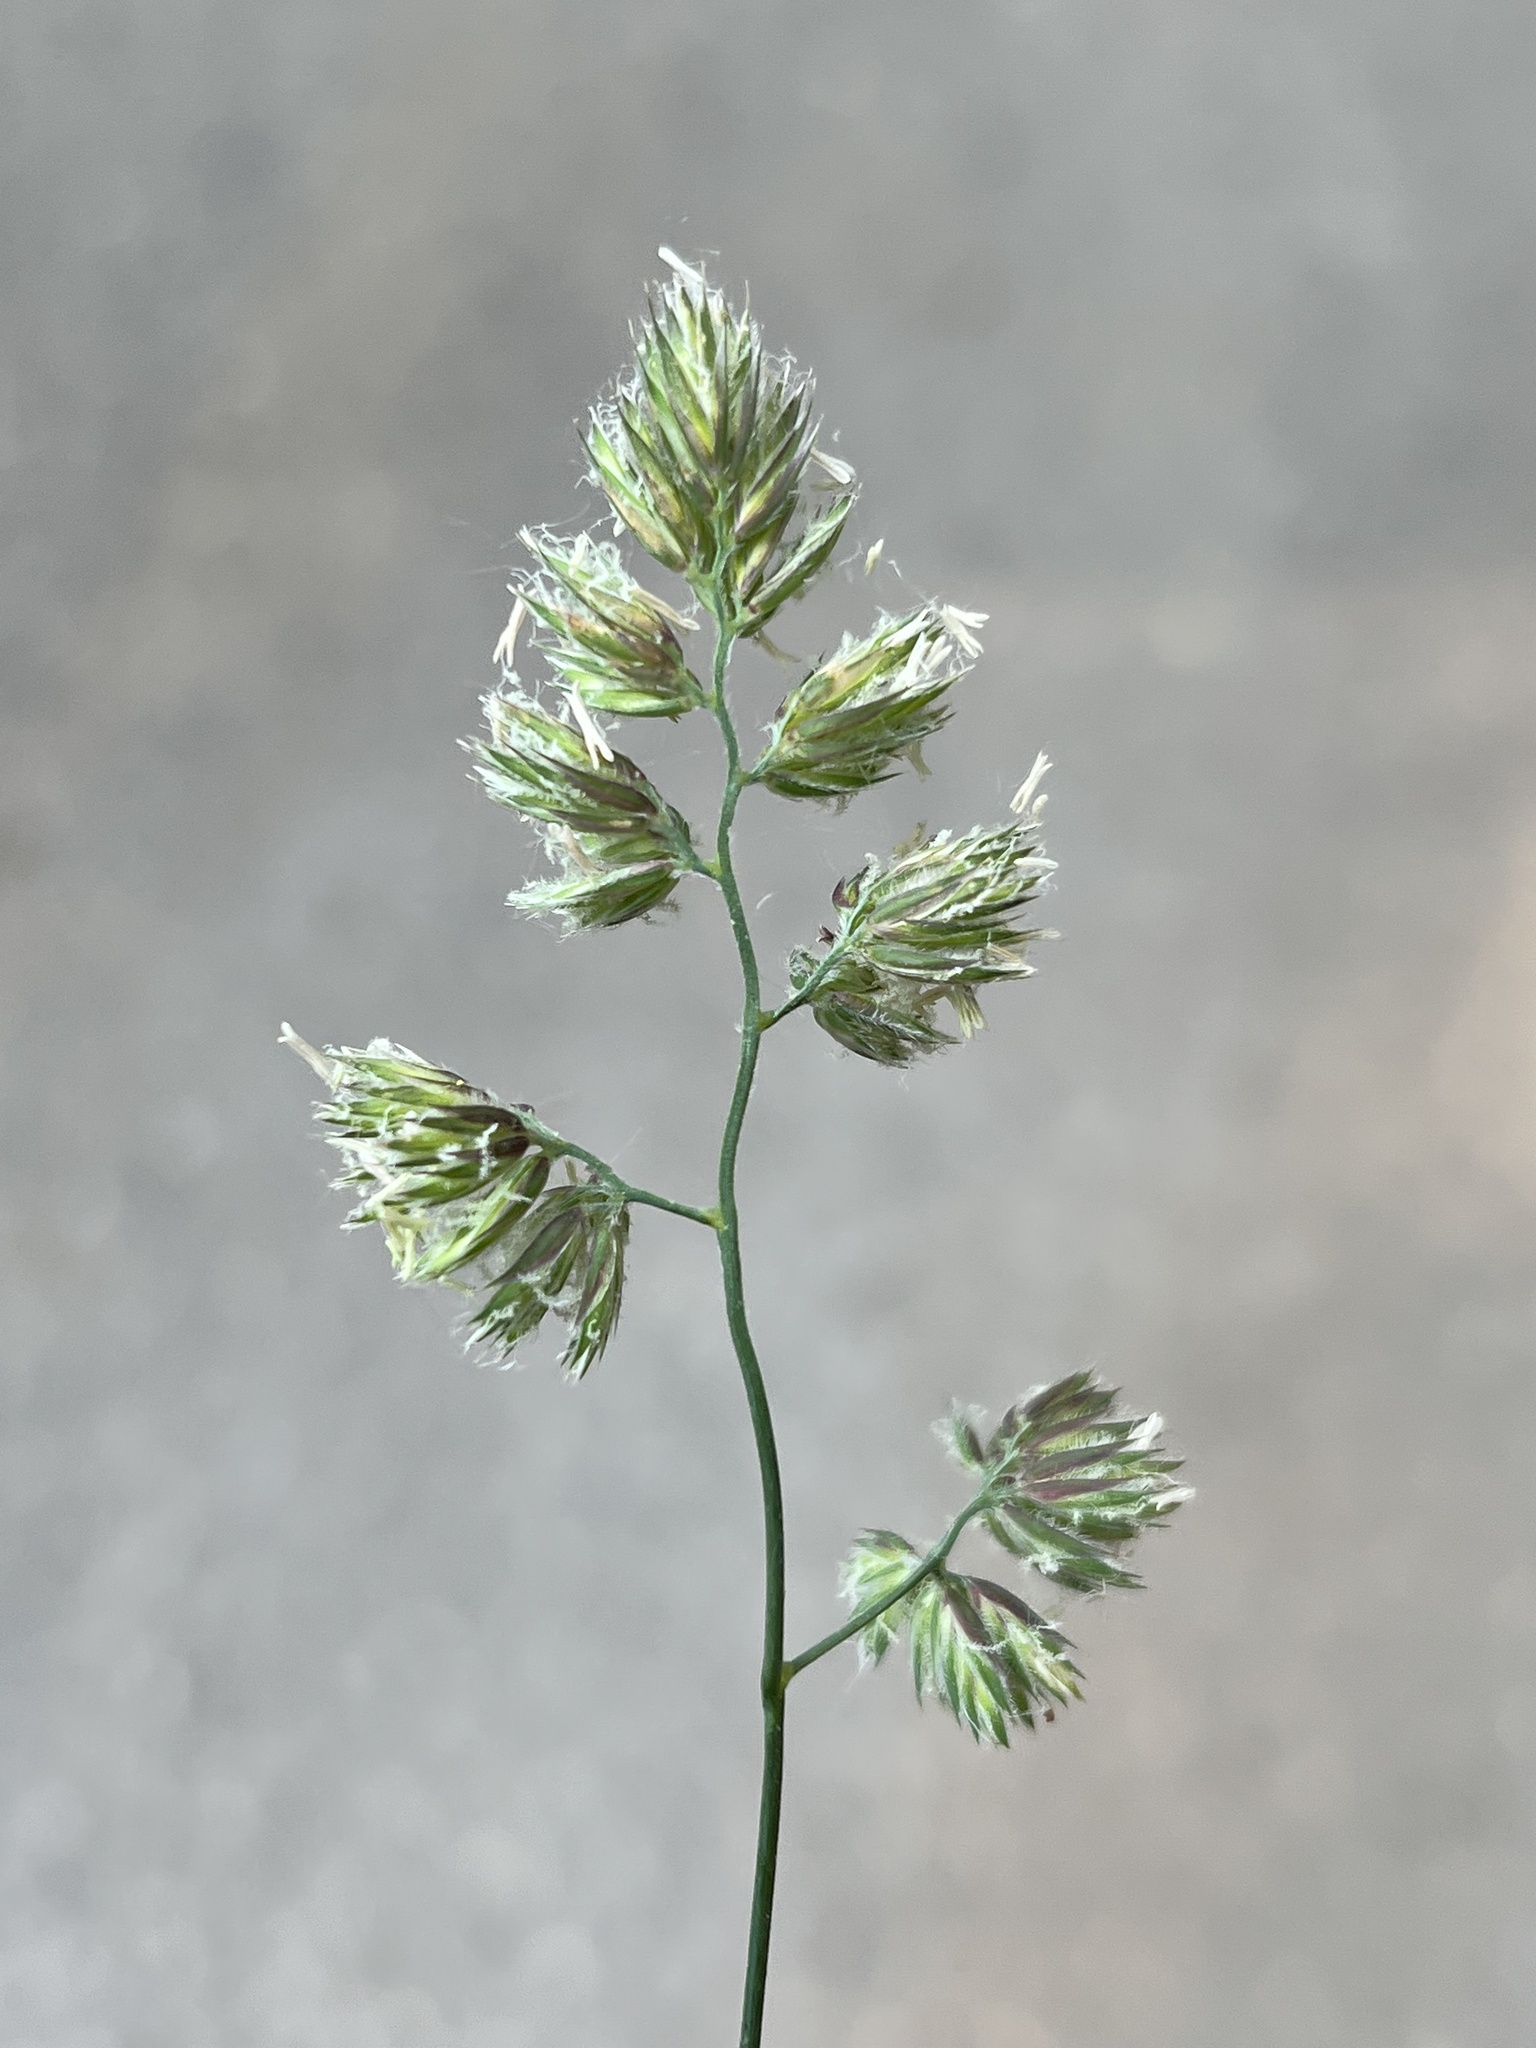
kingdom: Plantae
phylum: Tracheophyta
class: Liliopsida
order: Poales
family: Poaceae
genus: Dactylis
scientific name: Dactylis glomerata
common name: Orchardgrass
